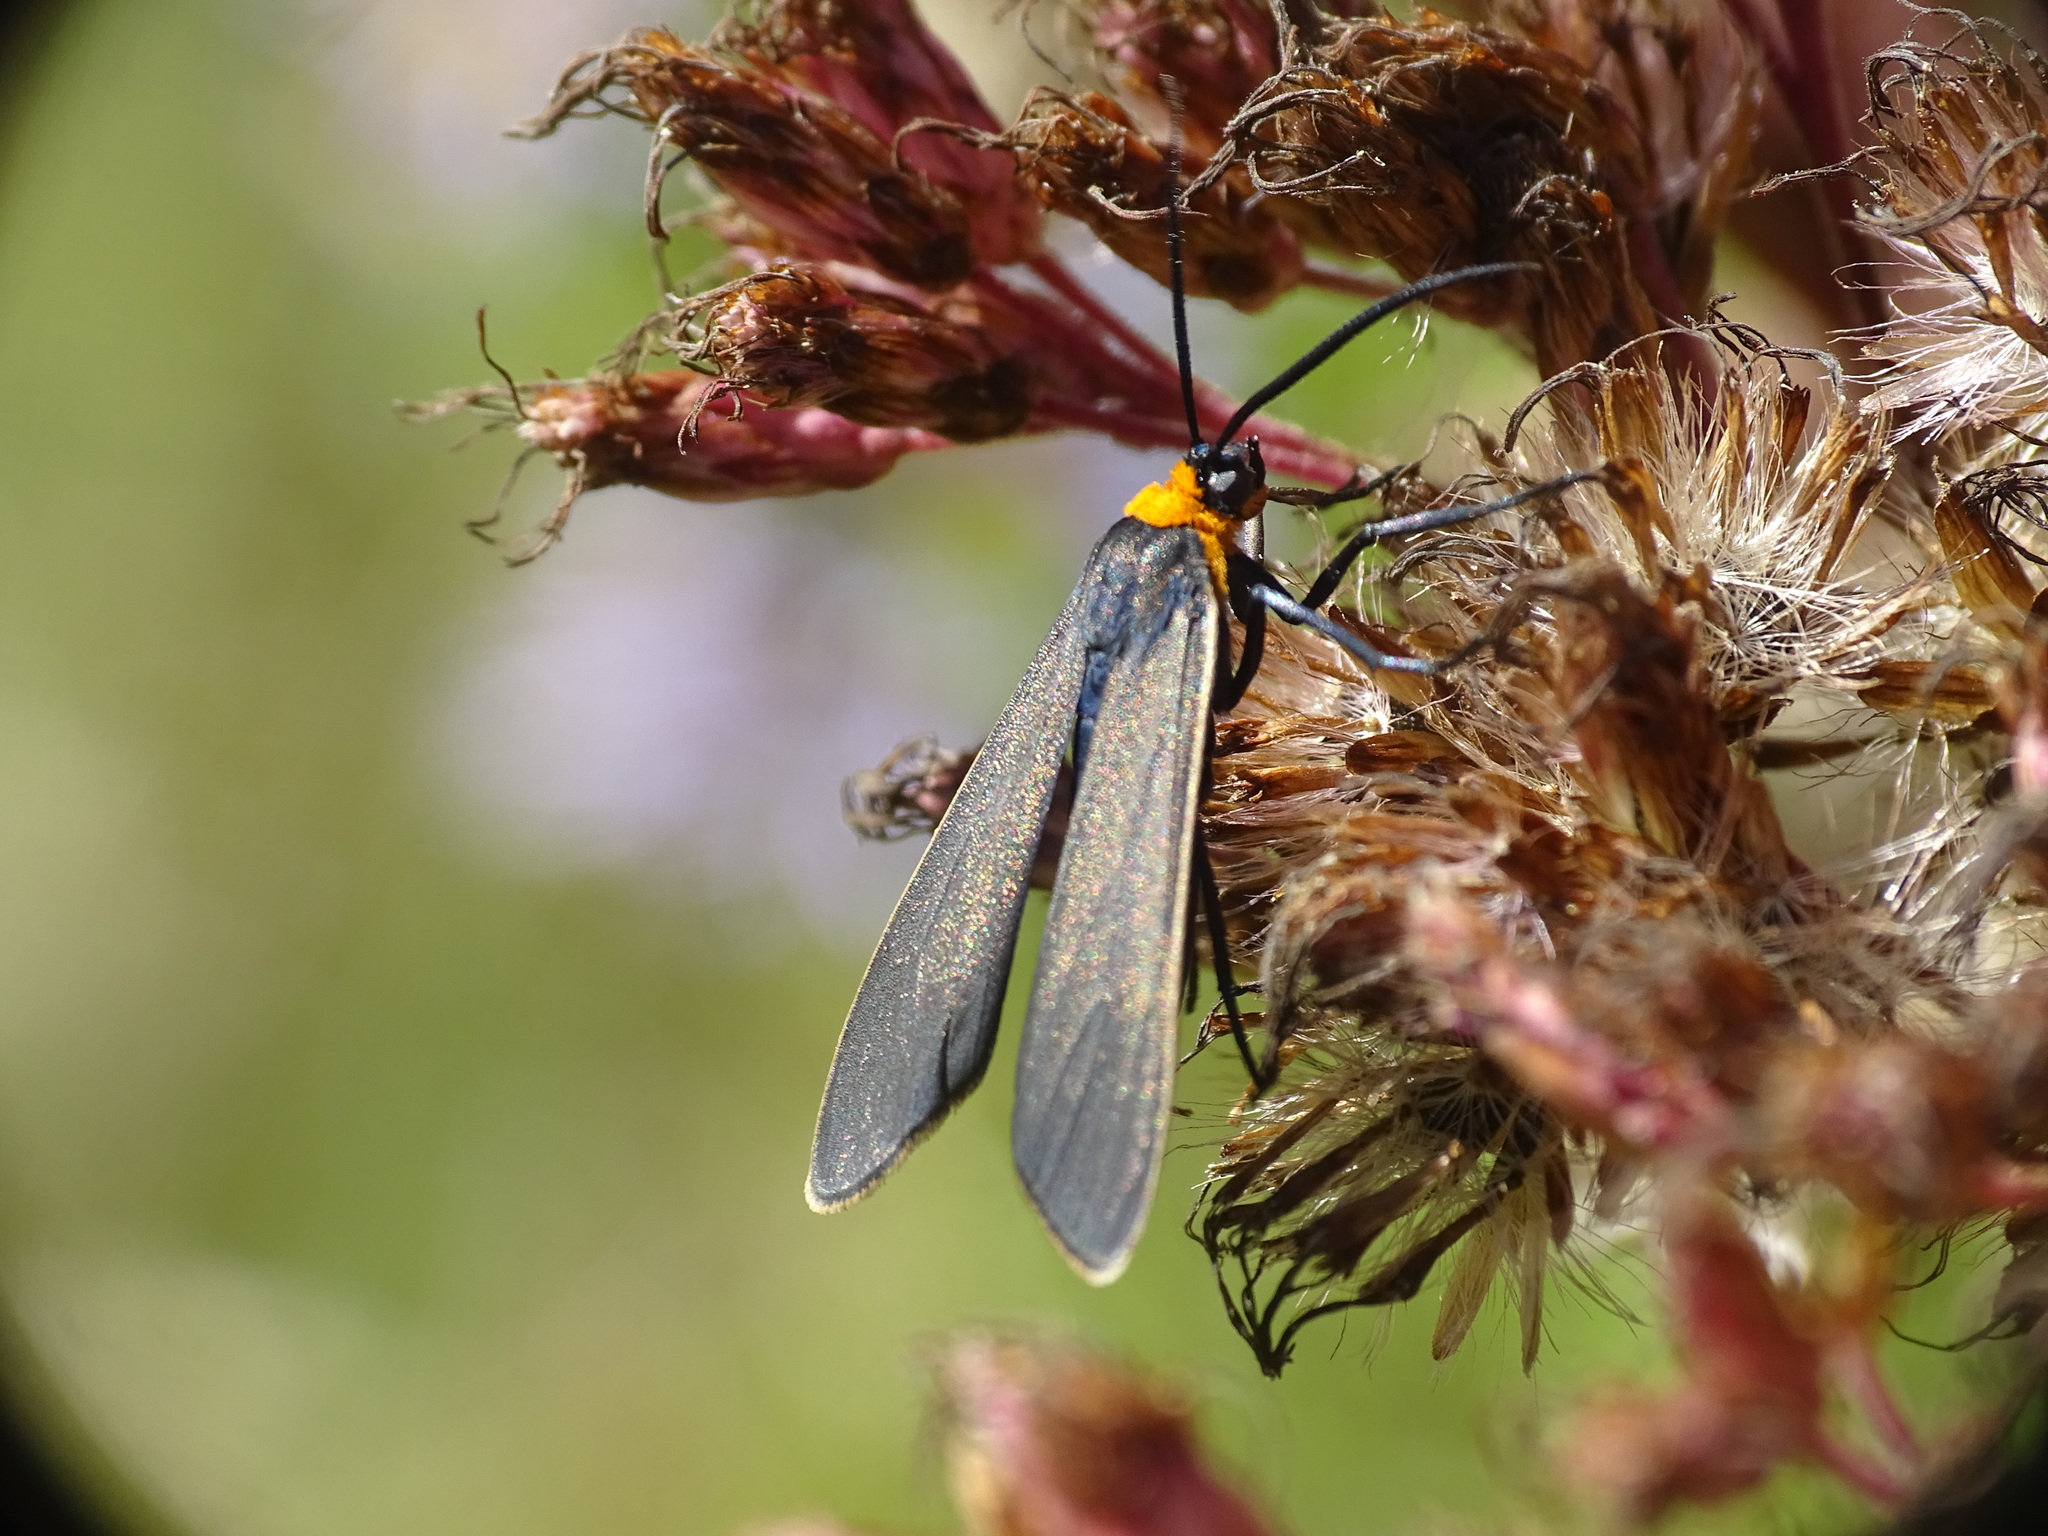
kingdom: Animalia
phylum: Arthropoda
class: Insecta
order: Lepidoptera
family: Erebidae
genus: Cisseps
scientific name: Cisseps fulvicollis
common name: Yellow-collared scape moth
